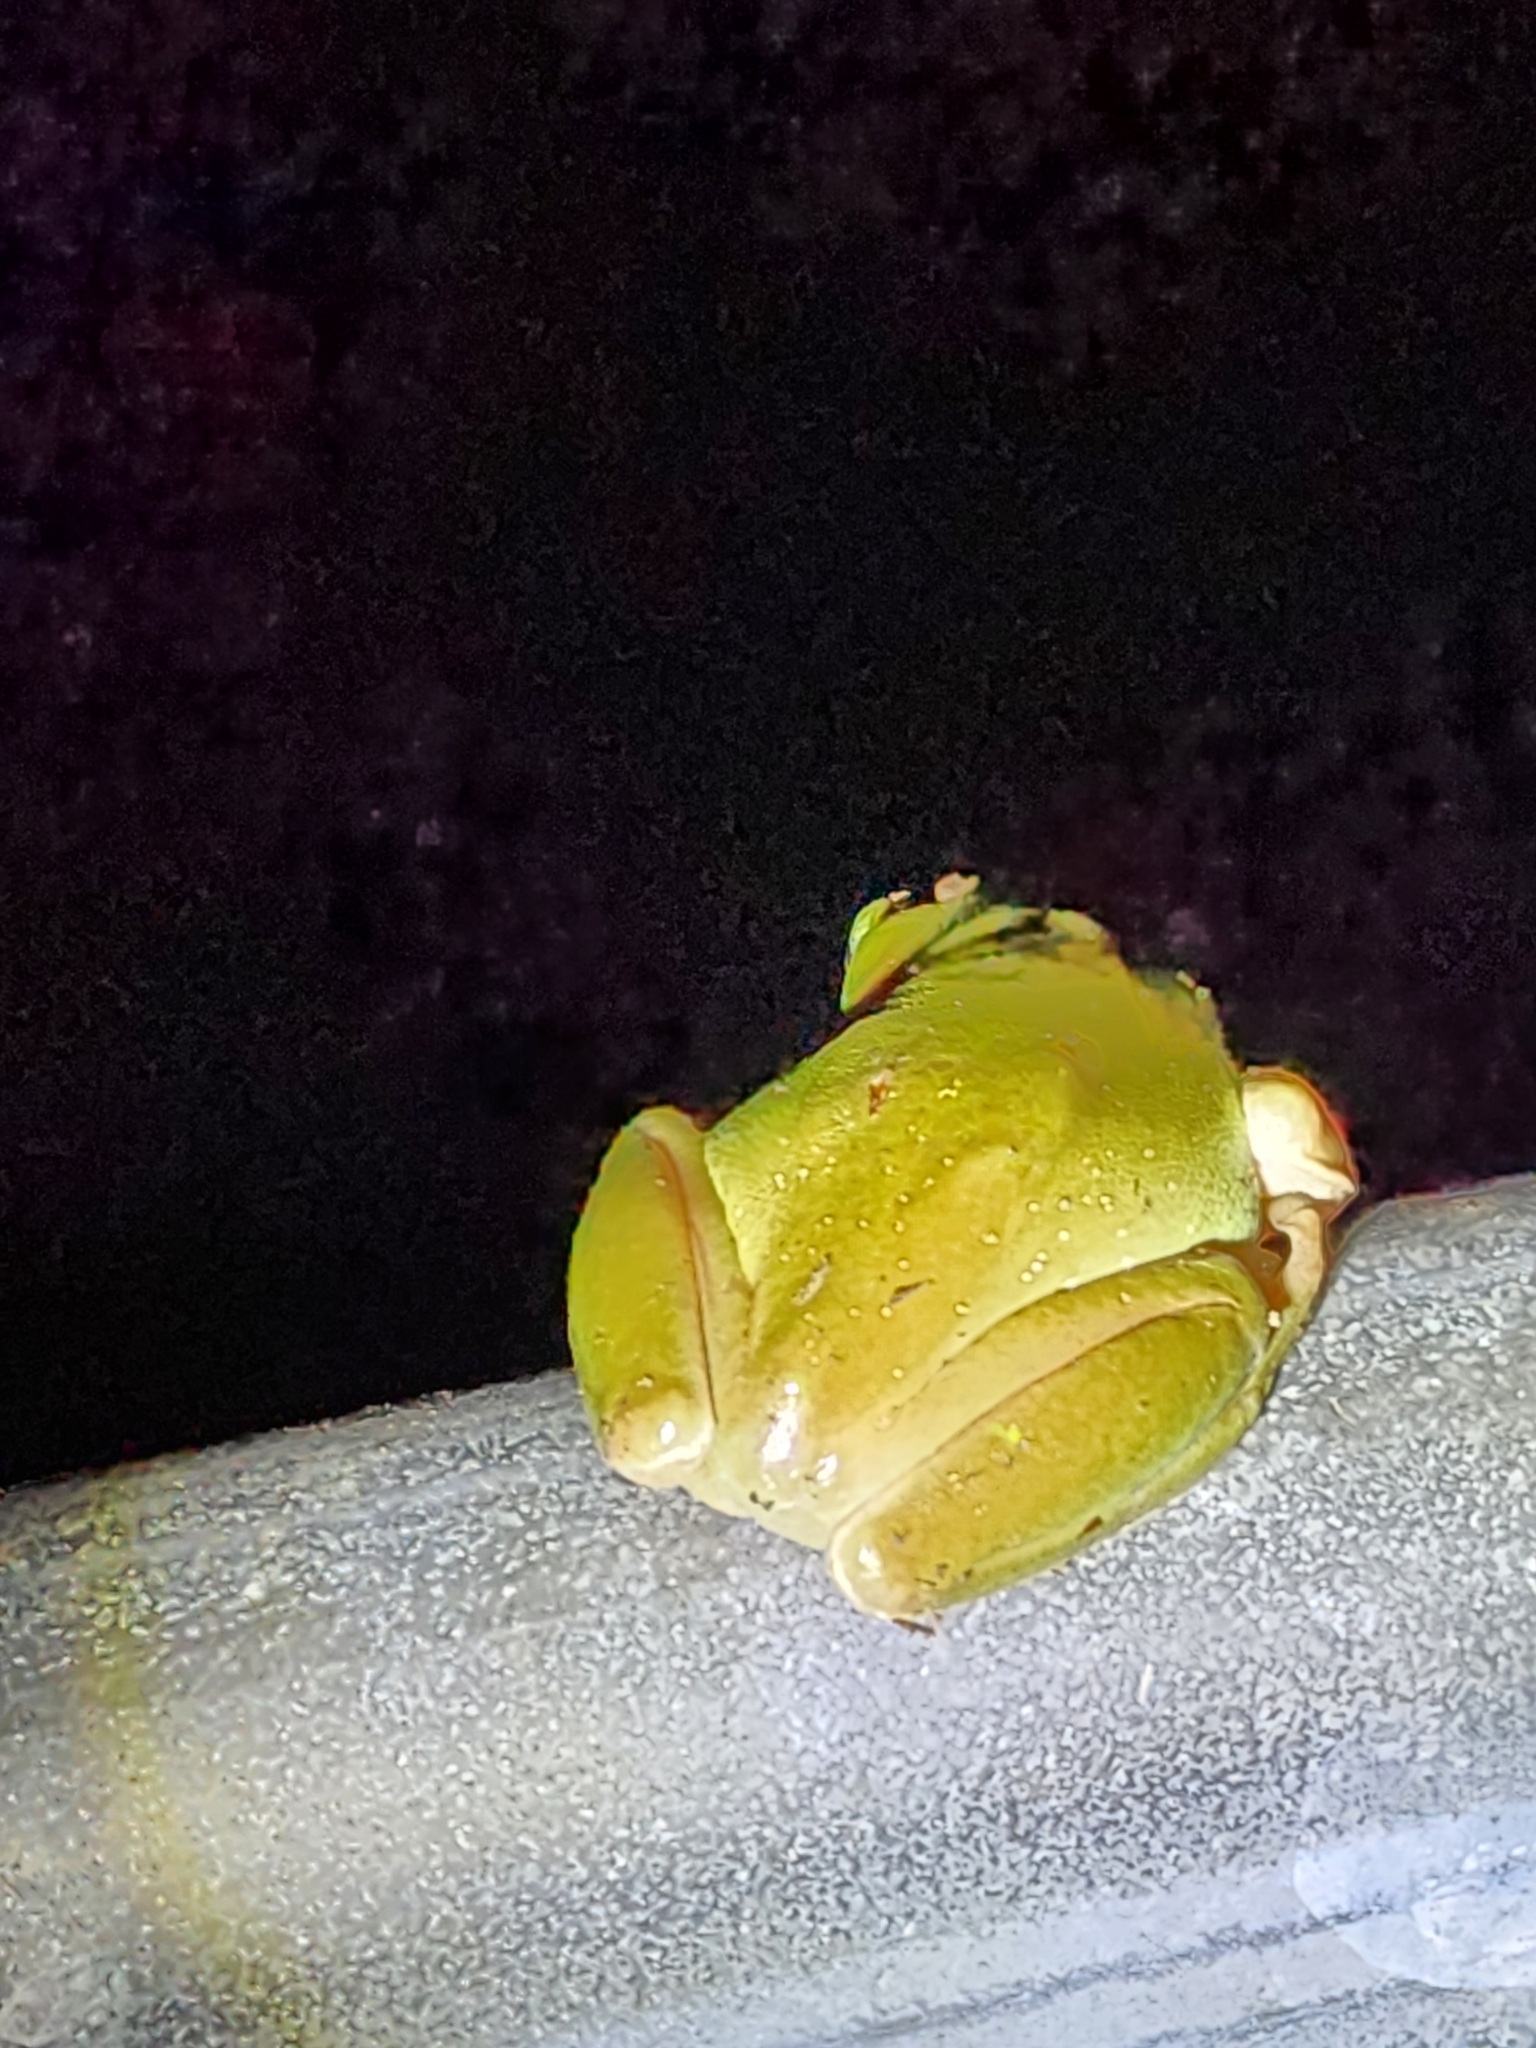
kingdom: Animalia
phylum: Chordata
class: Amphibia
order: Anura
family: Pelodryadidae
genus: Ranoidea
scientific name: Ranoidea caerulea
